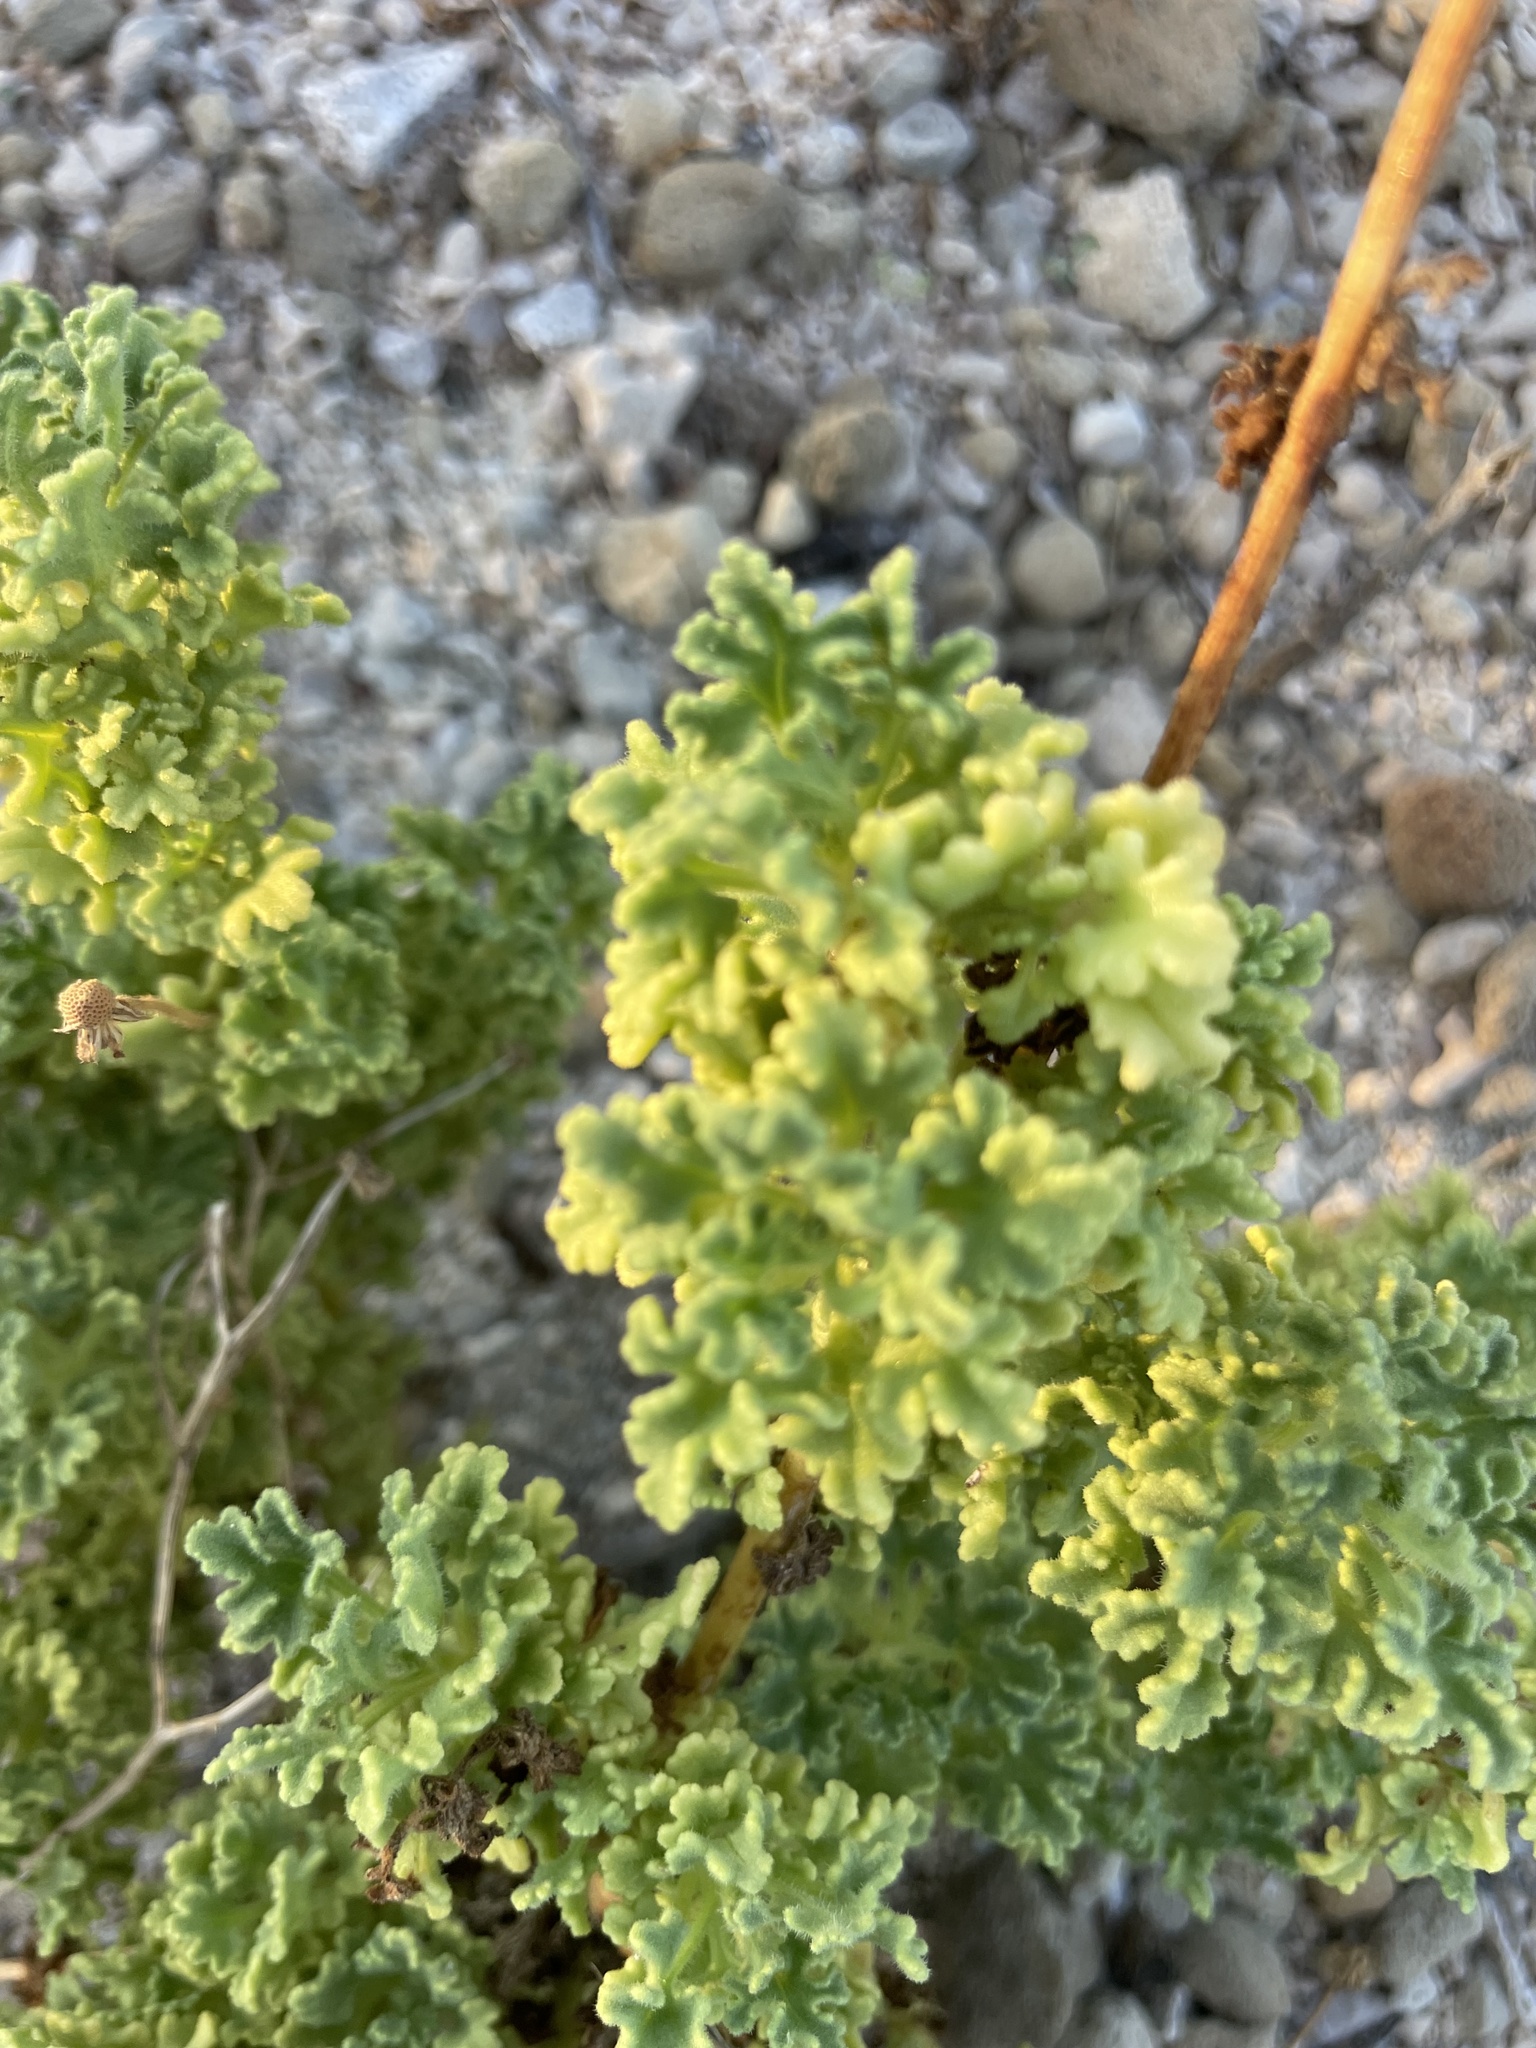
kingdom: Plantae
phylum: Tracheophyta
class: Magnoliopsida
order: Asterales
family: Asteraceae
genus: Perityle
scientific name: Perityle crassifolia
